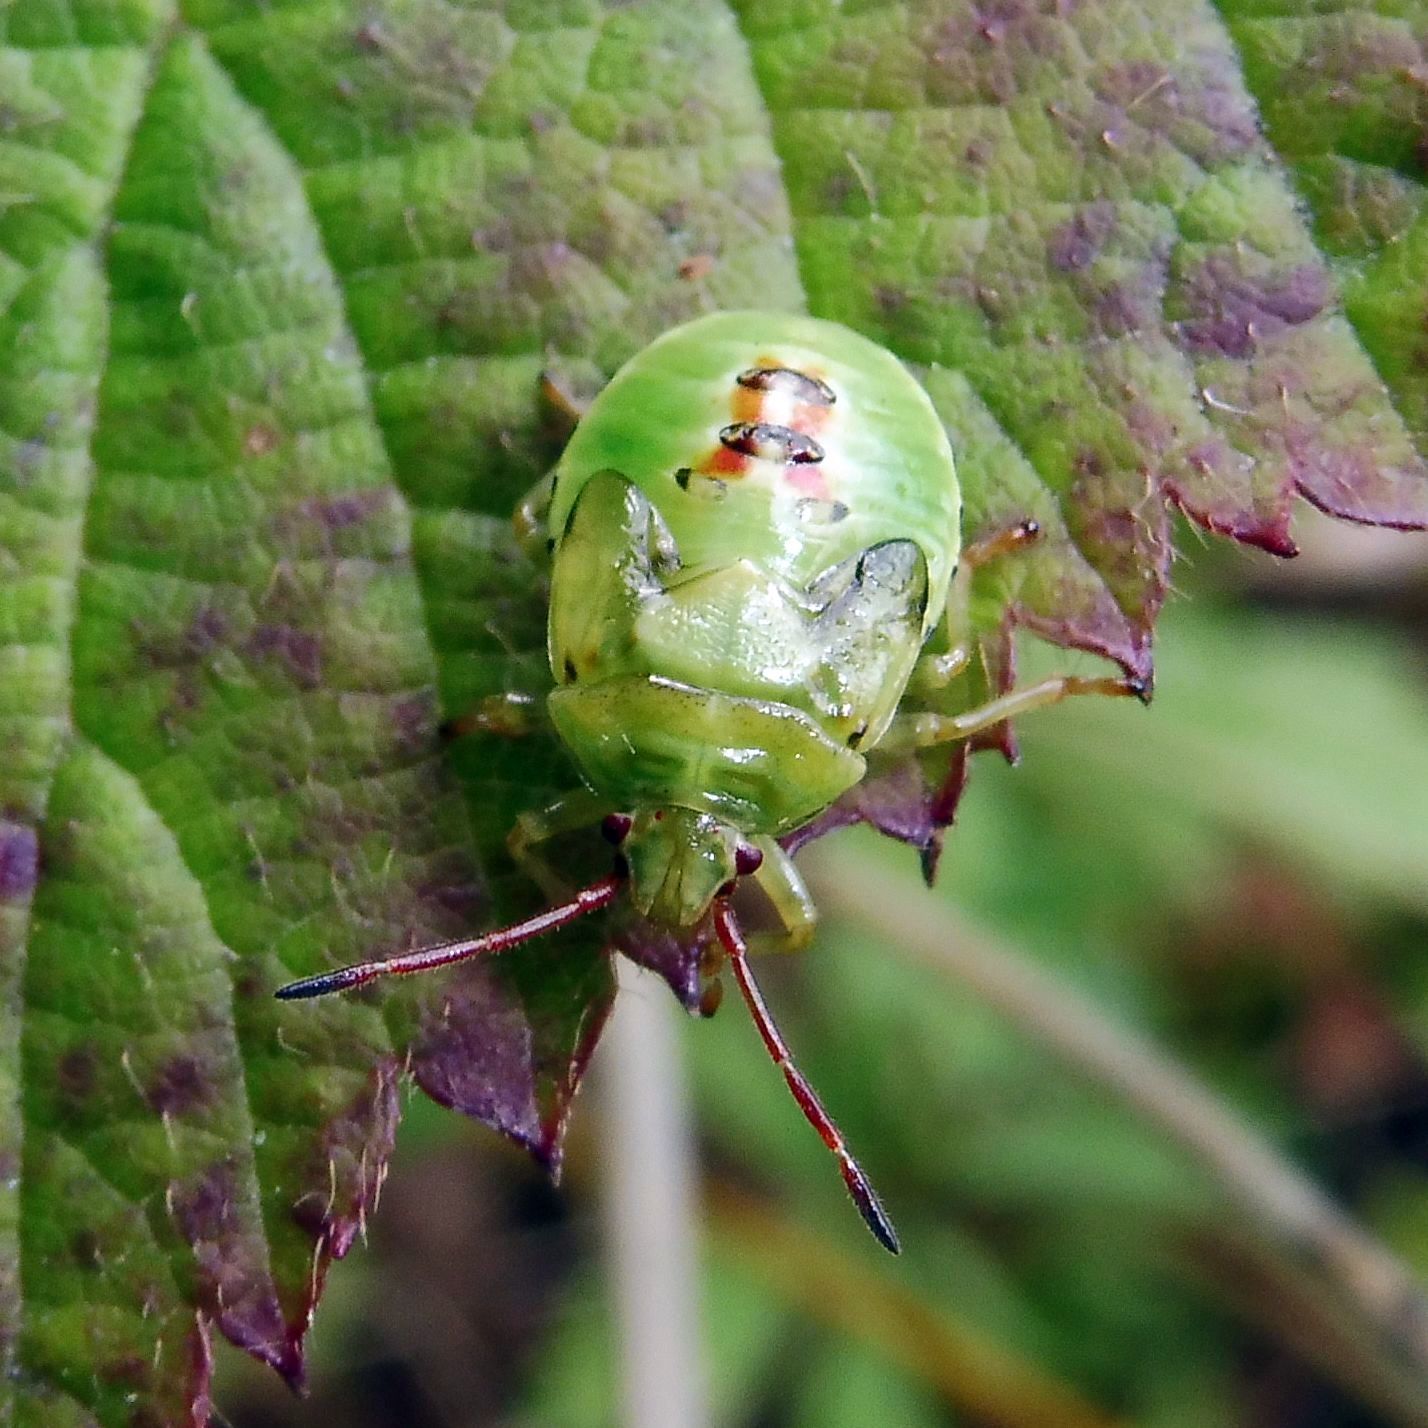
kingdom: Animalia
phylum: Arthropoda
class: Insecta
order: Hemiptera
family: Acanthosomatidae
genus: Elasmostethus
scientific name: Elasmostethus interstinctus
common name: Birch shieldbug
